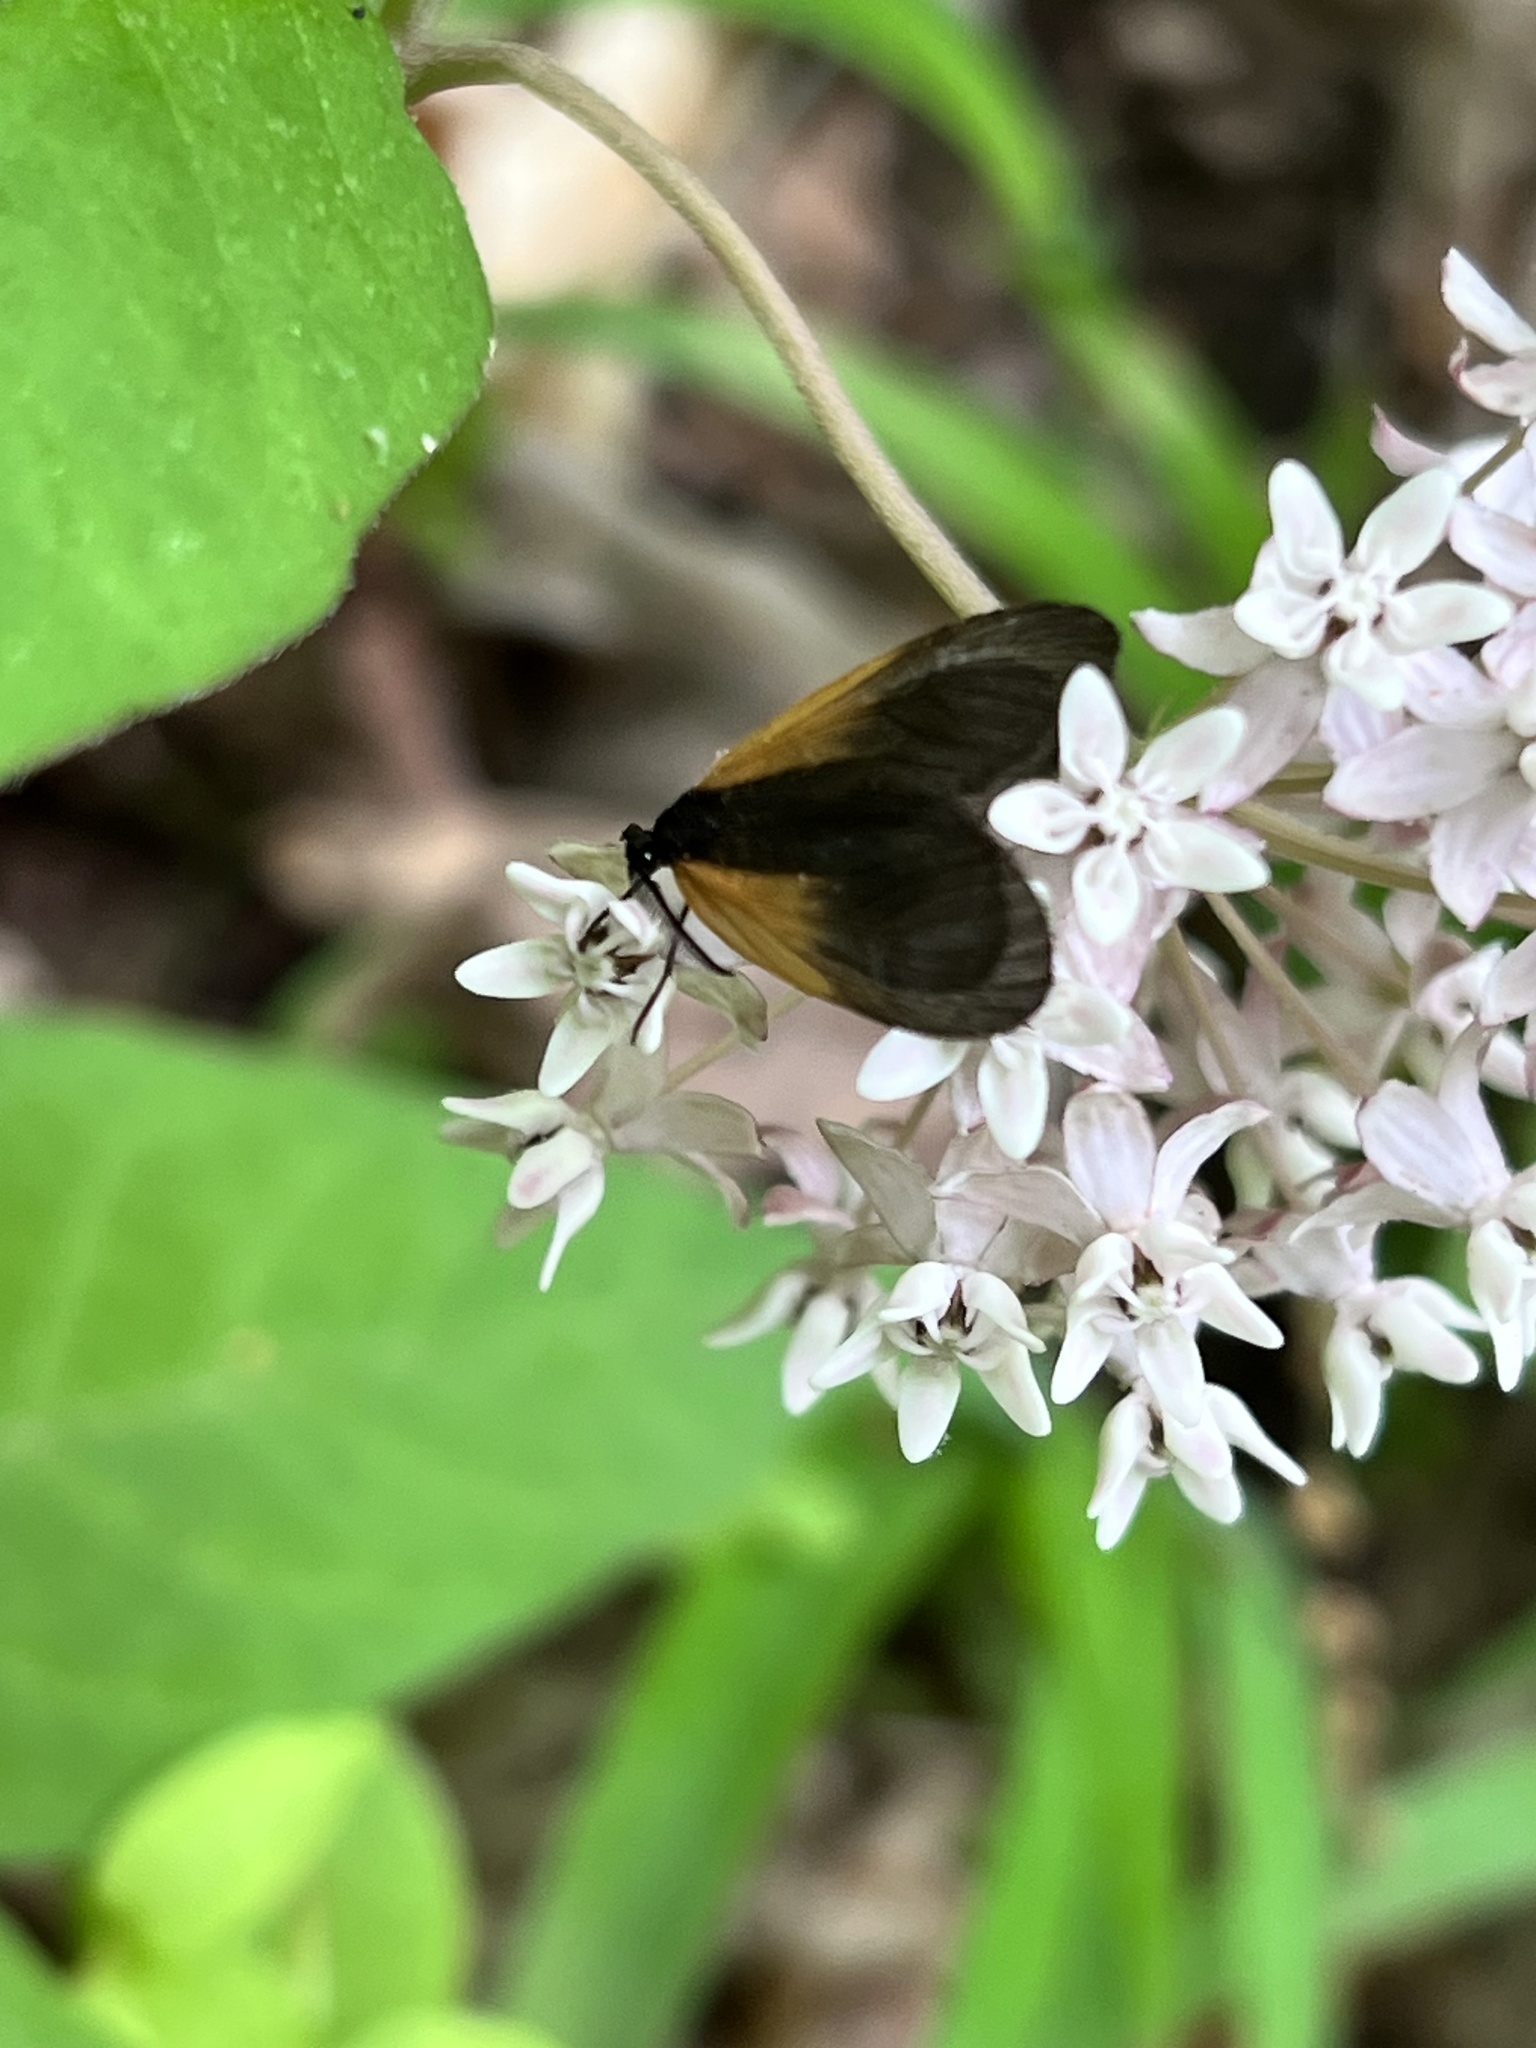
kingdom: Animalia
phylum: Arthropoda
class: Insecta
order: Lepidoptera
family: Zygaenidae
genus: Malthaca
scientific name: Malthaca dimidiata
